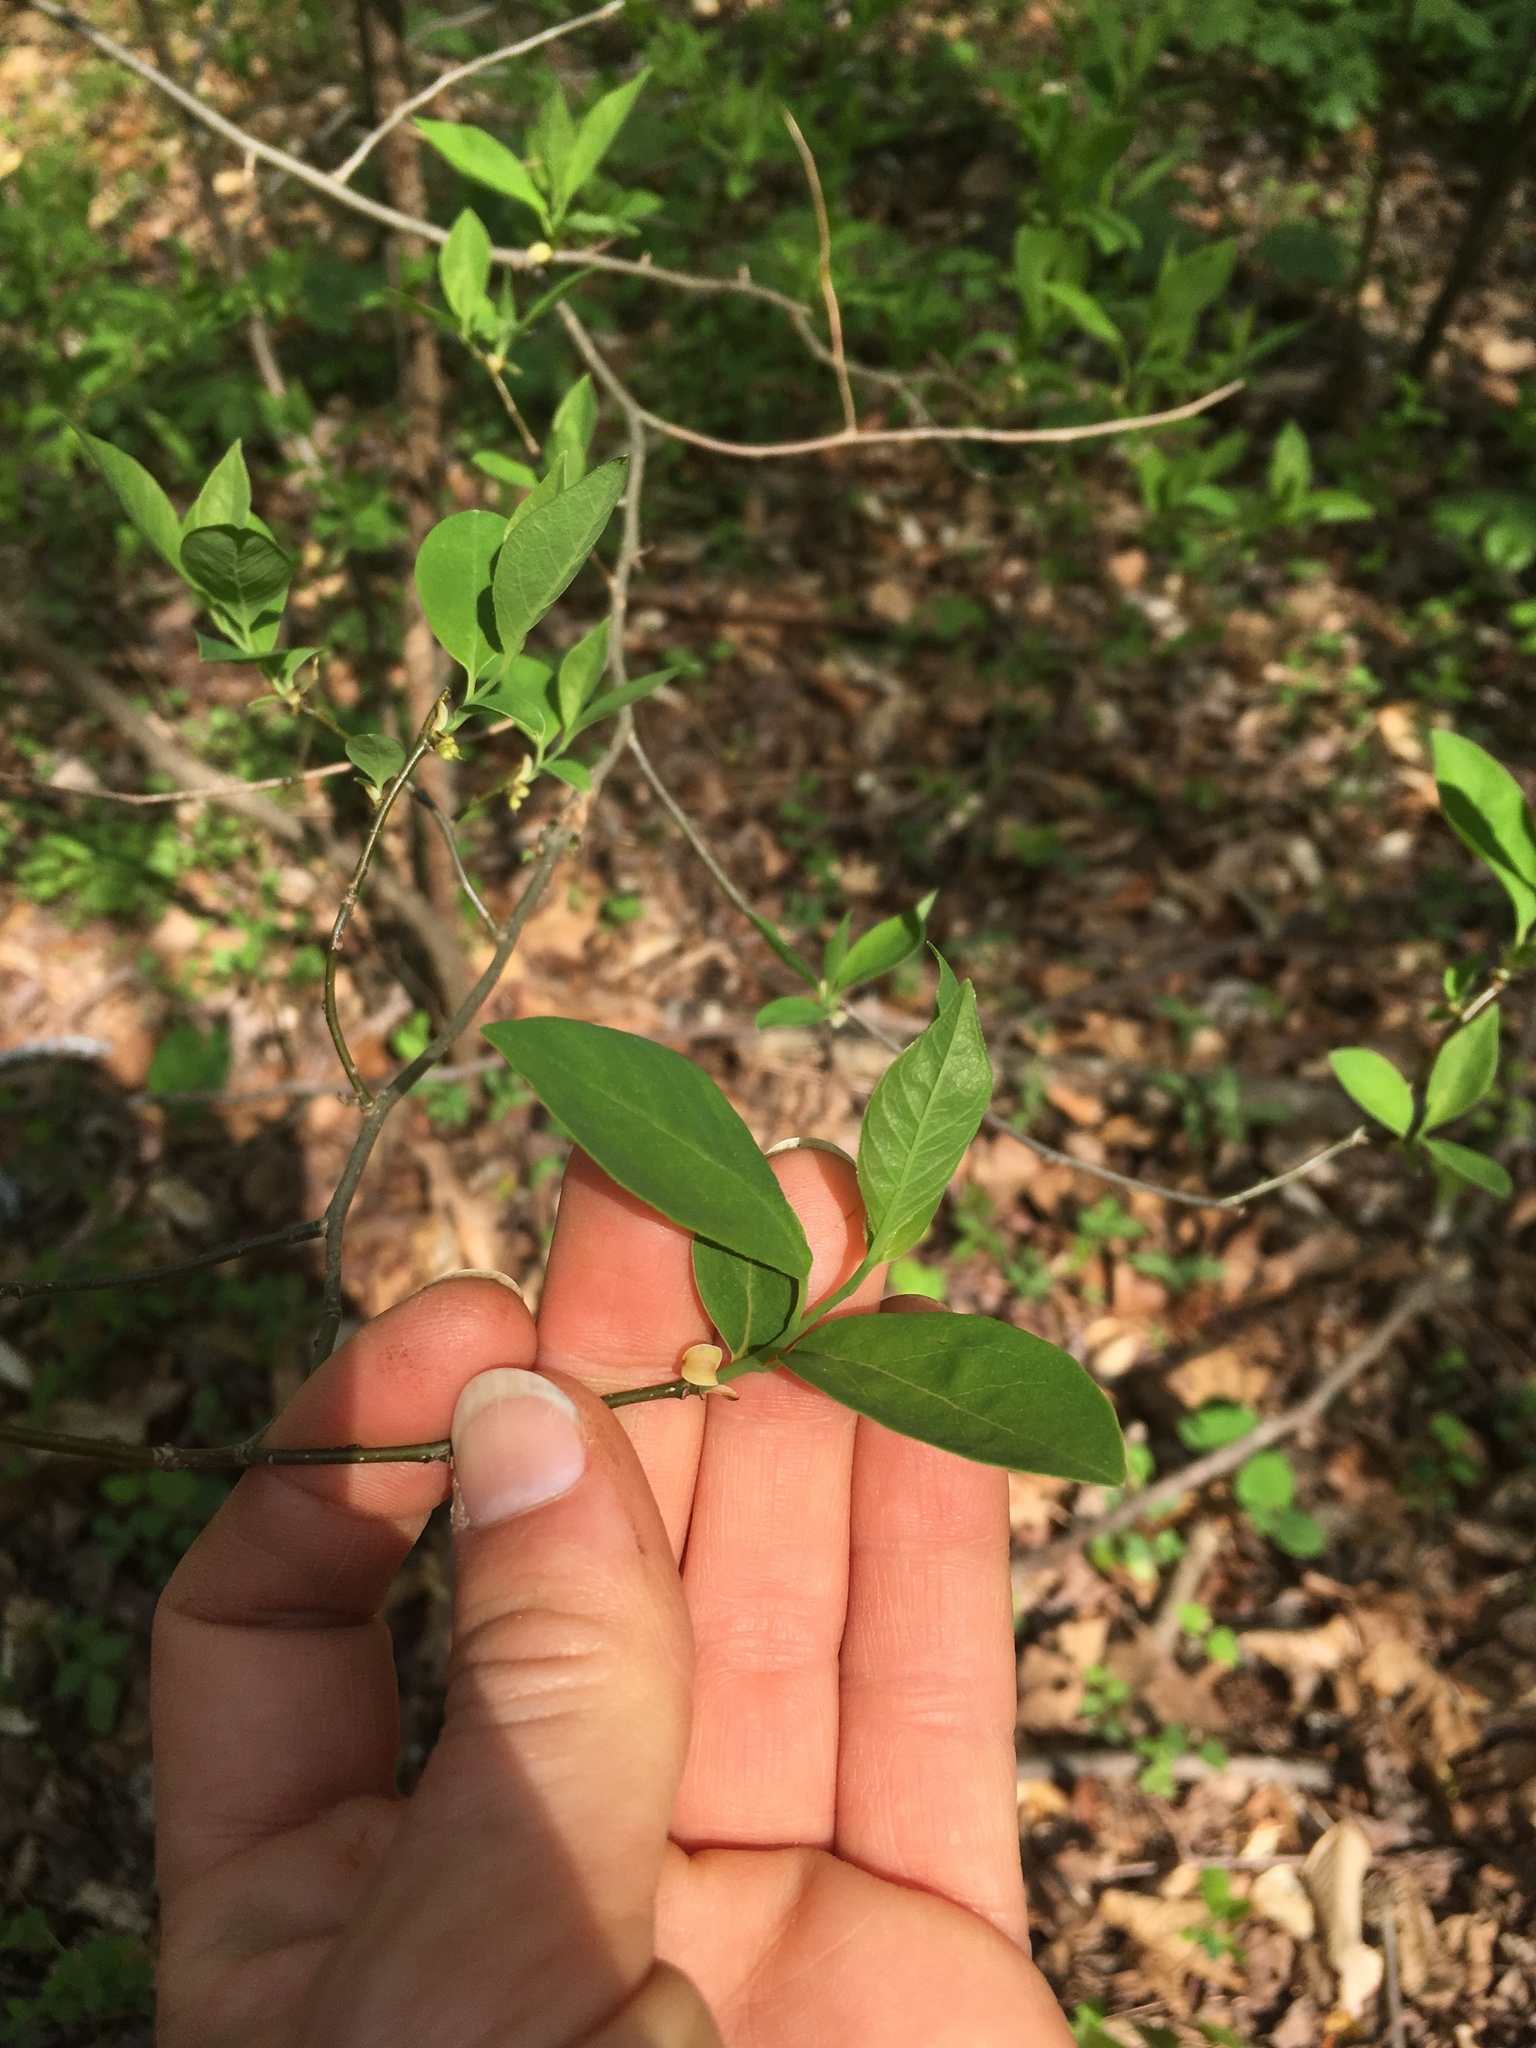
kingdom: Plantae
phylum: Tracheophyta
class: Magnoliopsida
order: Laurales
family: Lauraceae
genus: Lindera
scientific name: Lindera benzoin
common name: Spicebush
